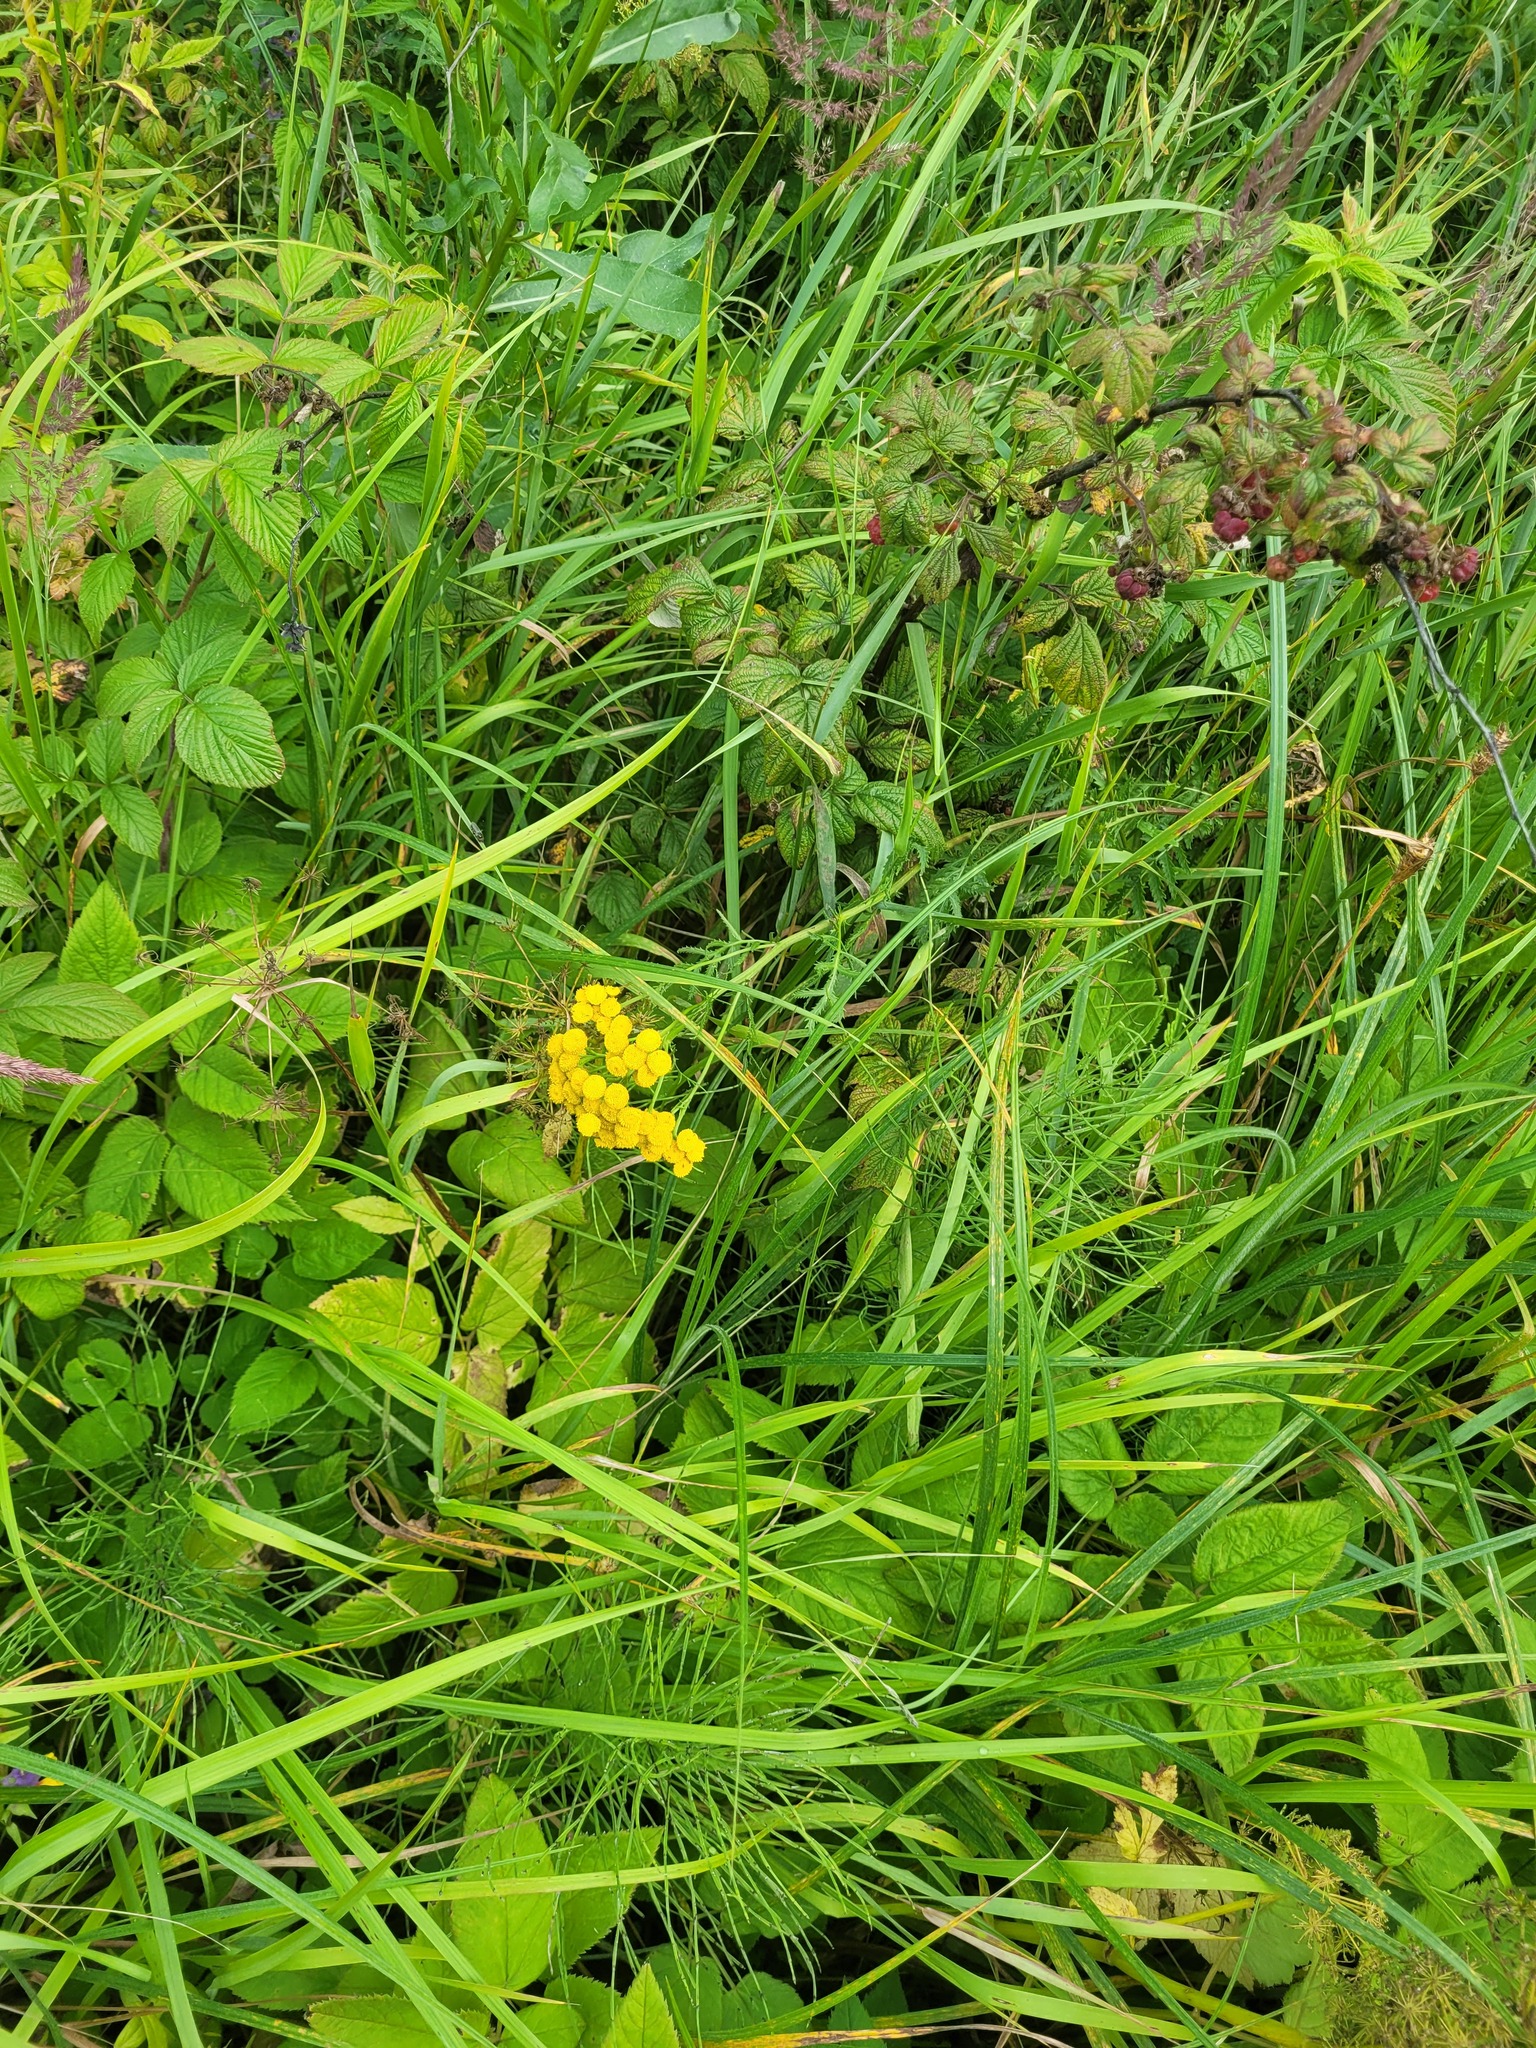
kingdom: Plantae
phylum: Tracheophyta
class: Magnoliopsida
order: Asterales
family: Asteraceae
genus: Tanacetum
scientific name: Tanacetum vulgare
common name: Common tansy
